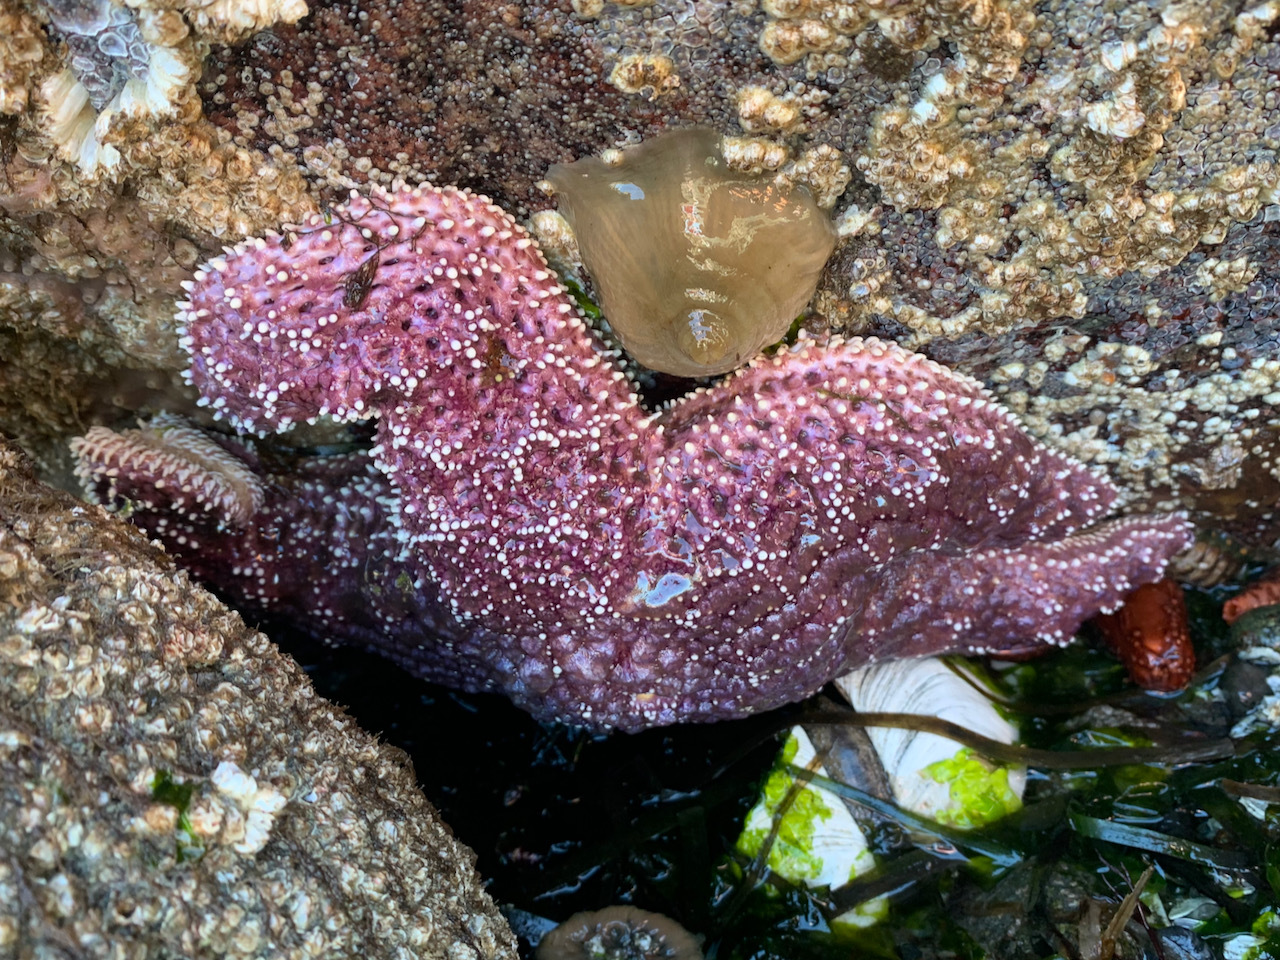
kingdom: Animalia
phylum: Echinodermata
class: Asteroidea
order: Forcipulatida
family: Asteriidae
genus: Pisaster
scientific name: Pisaster ochraceus
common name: Ochre stars
